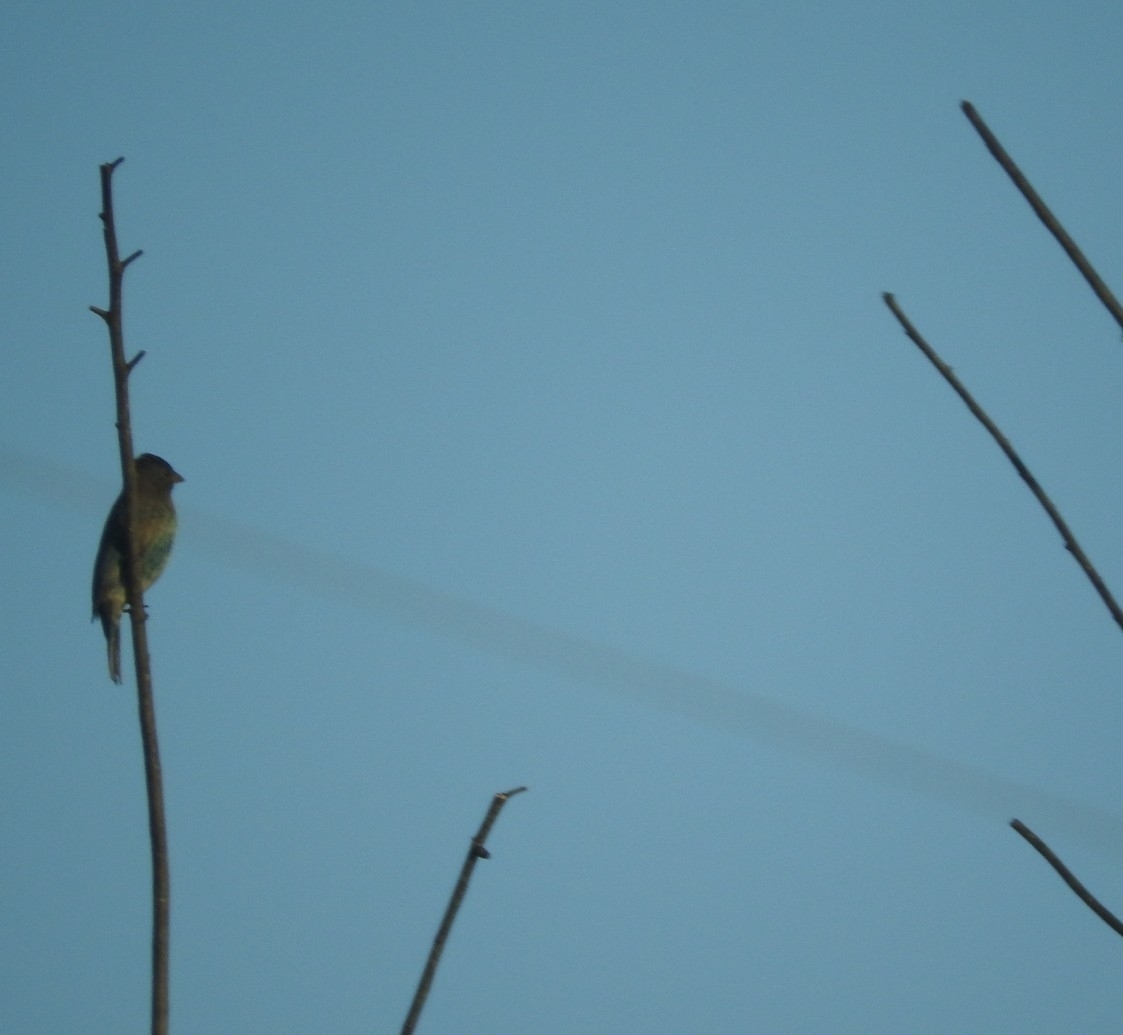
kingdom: Animalia
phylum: Chordata
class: Aves
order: Passeriformes
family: Cardinalidae
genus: Passerina
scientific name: Passerina cyanea
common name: Indigo bunting
